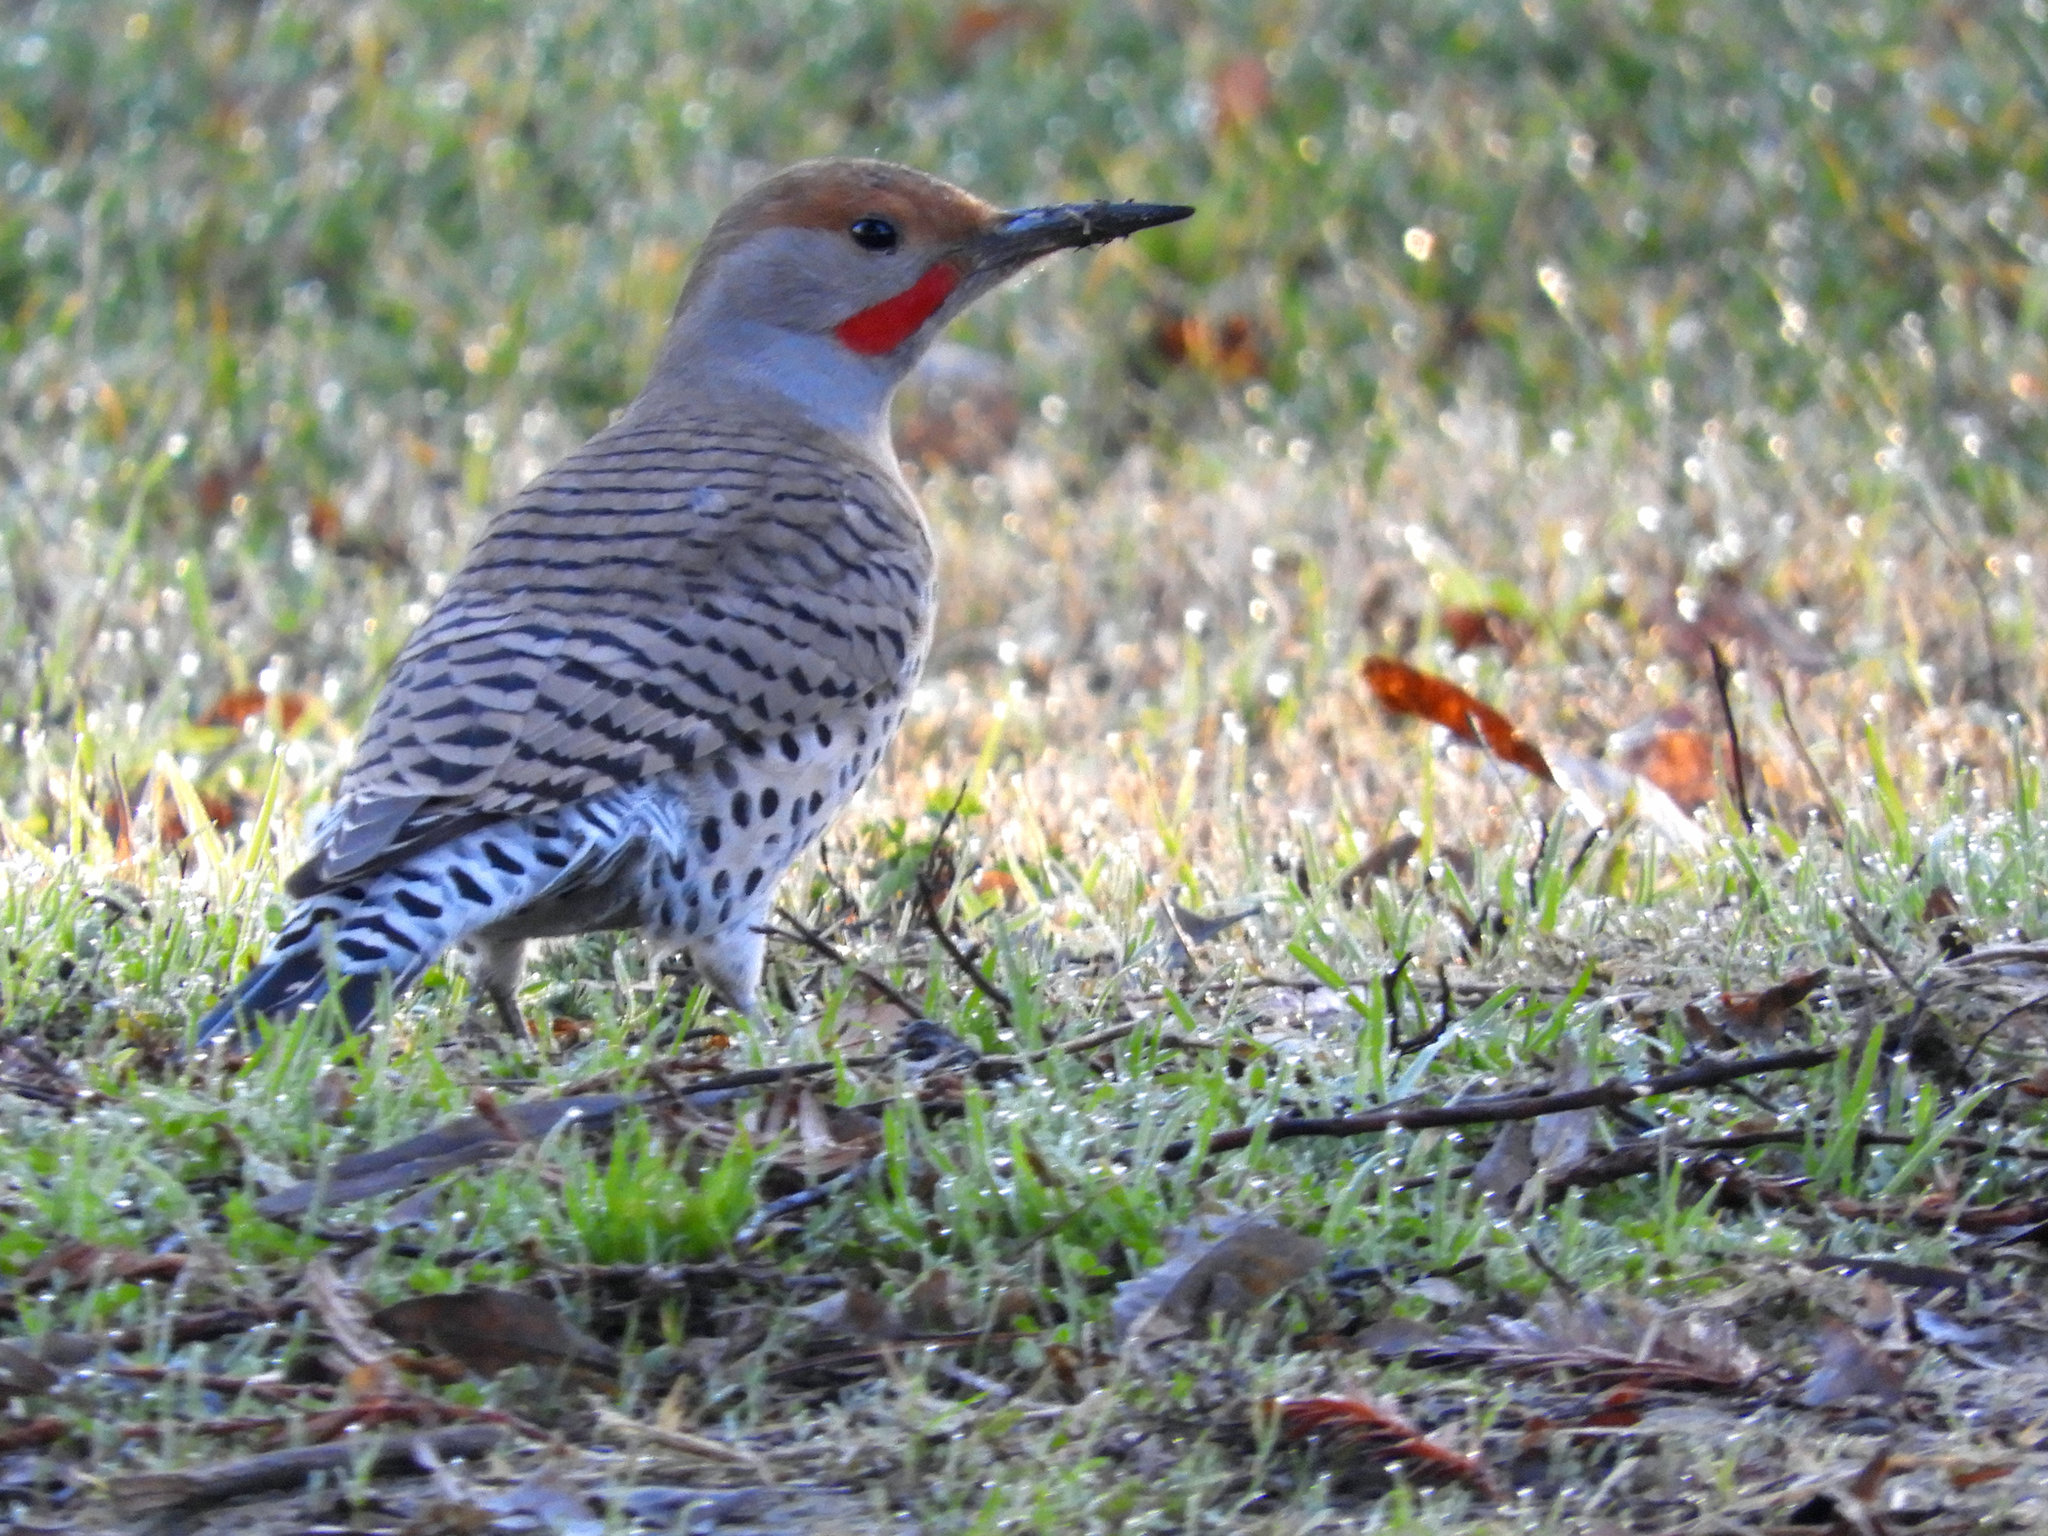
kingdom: Animalia
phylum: Chordata
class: Aves
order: Piciformes
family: Picidae
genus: Colaptes
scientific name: Colaptes auratus
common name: Northern flicker
